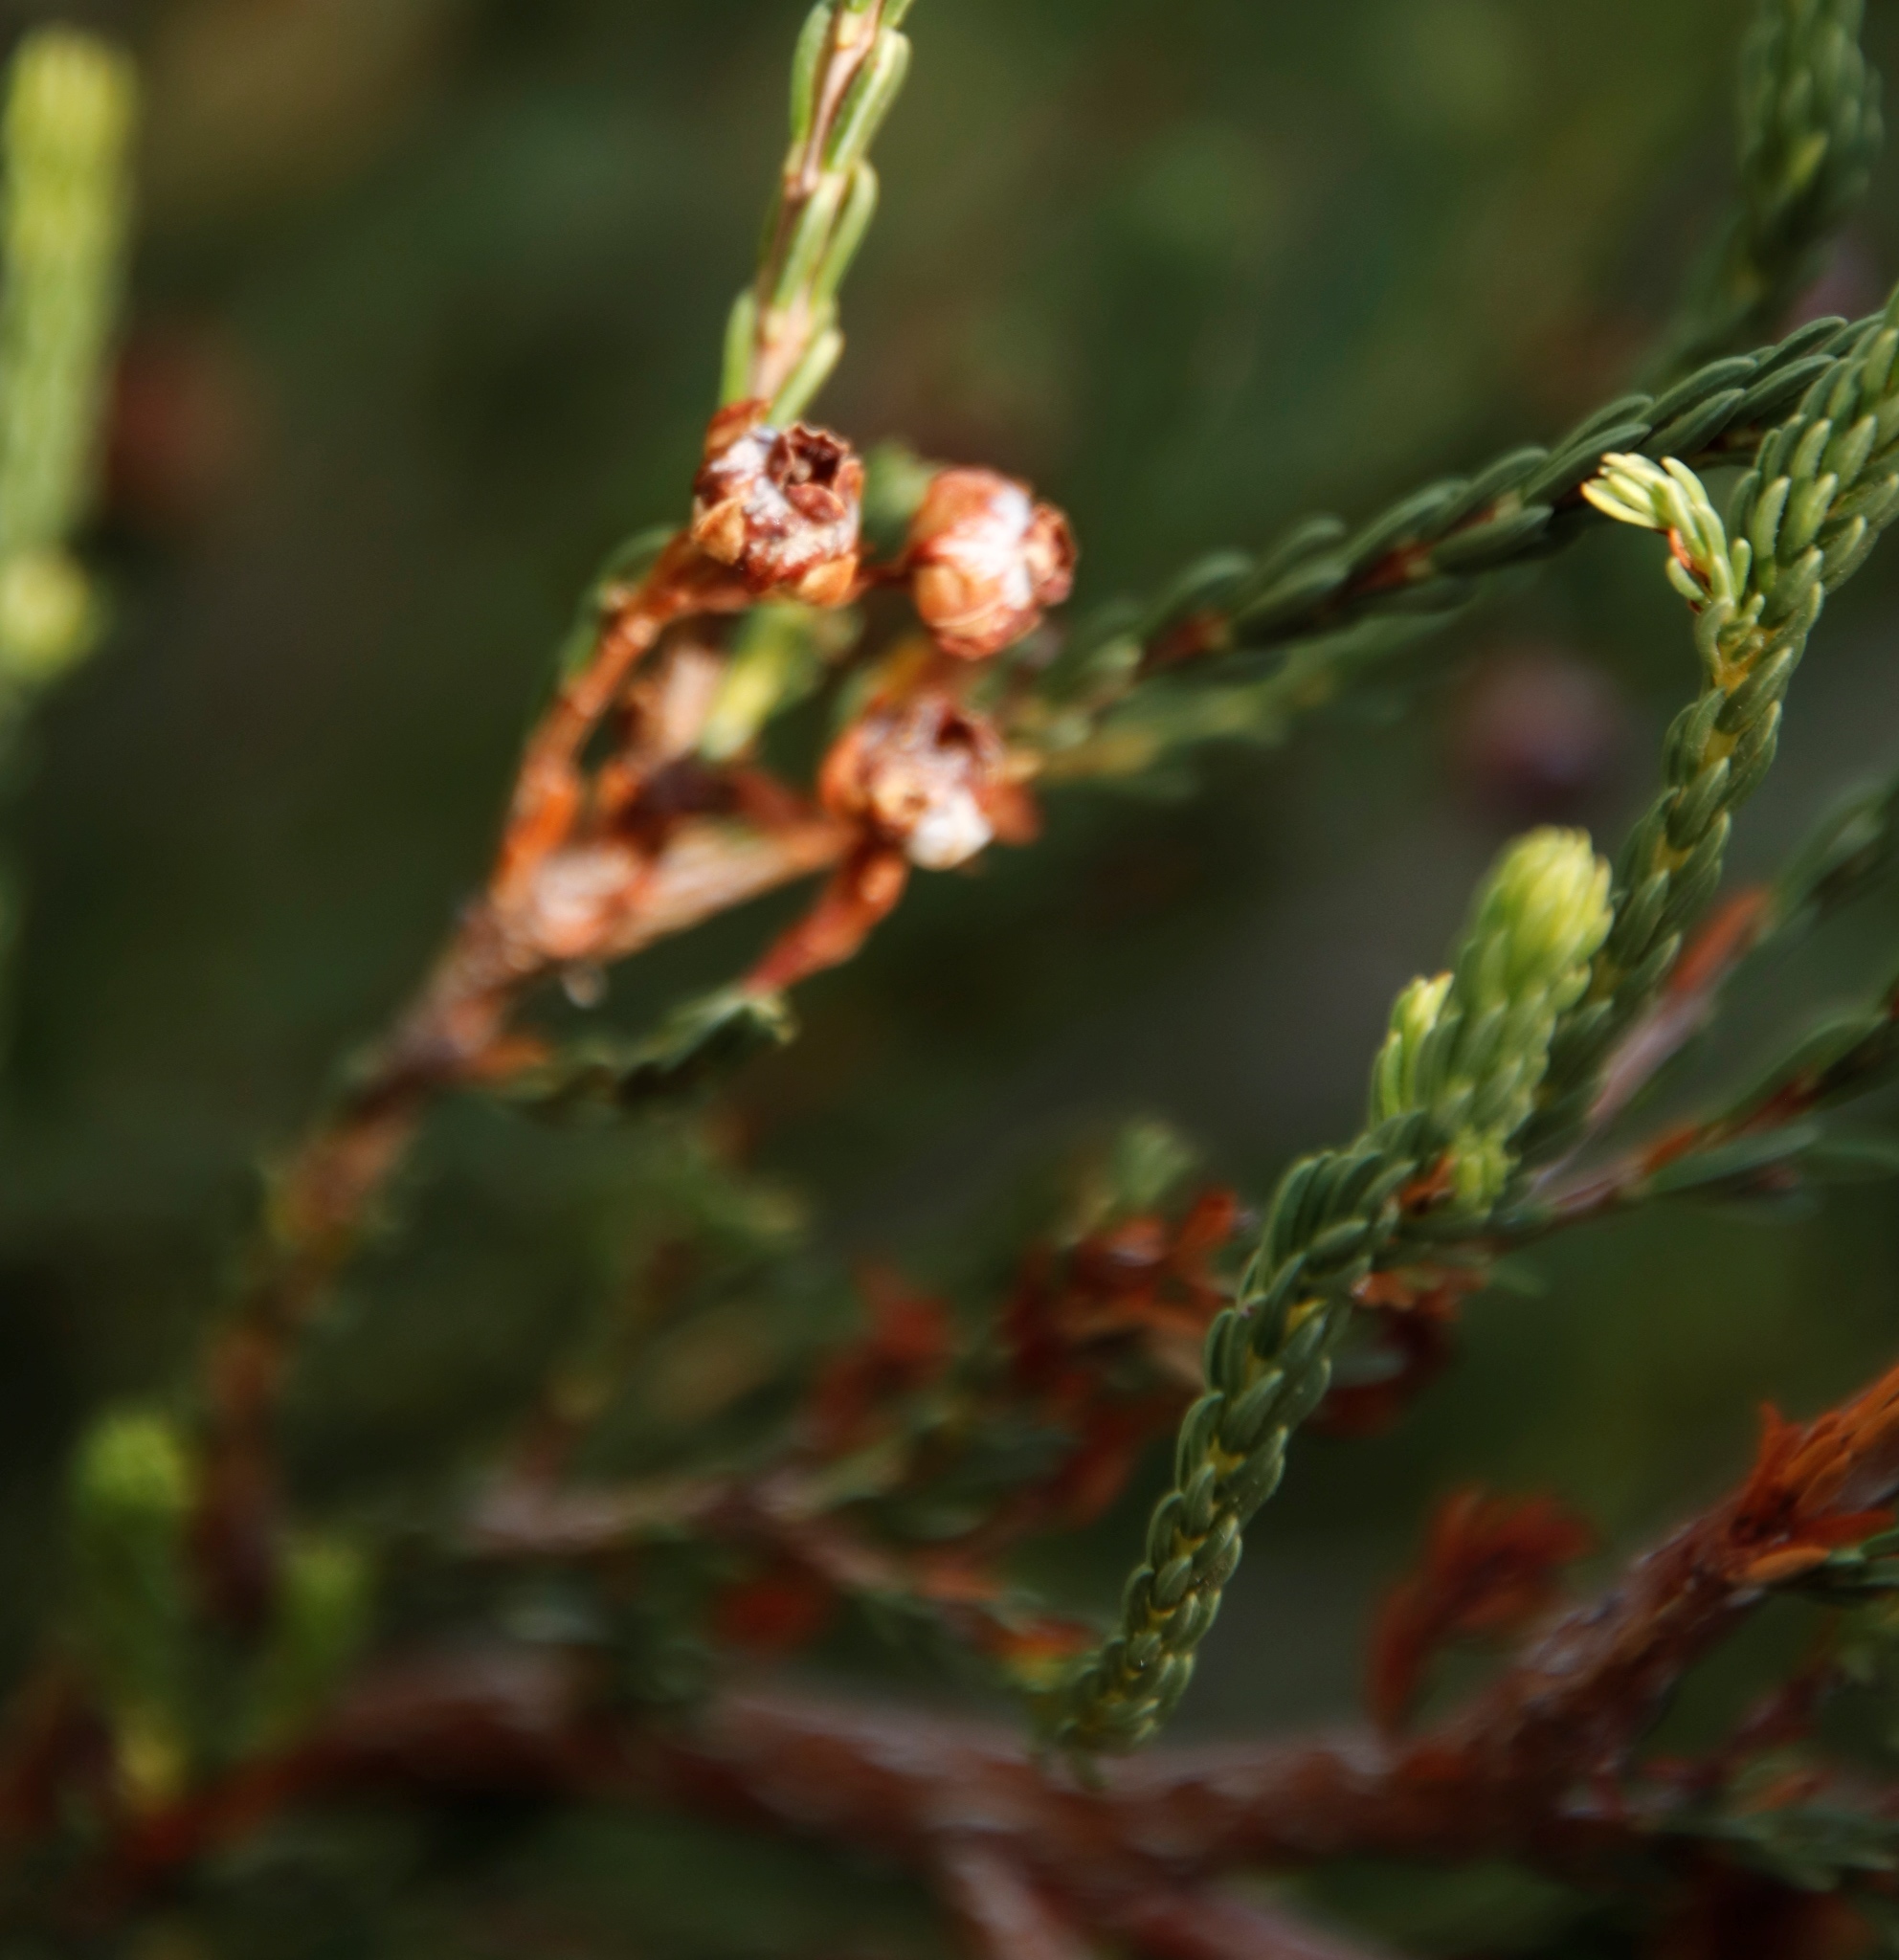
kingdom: Plantae
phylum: Tracheophyta
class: Magnoliopsida
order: Ericales
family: Ericaceae
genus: Erica
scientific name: Erica baccans
